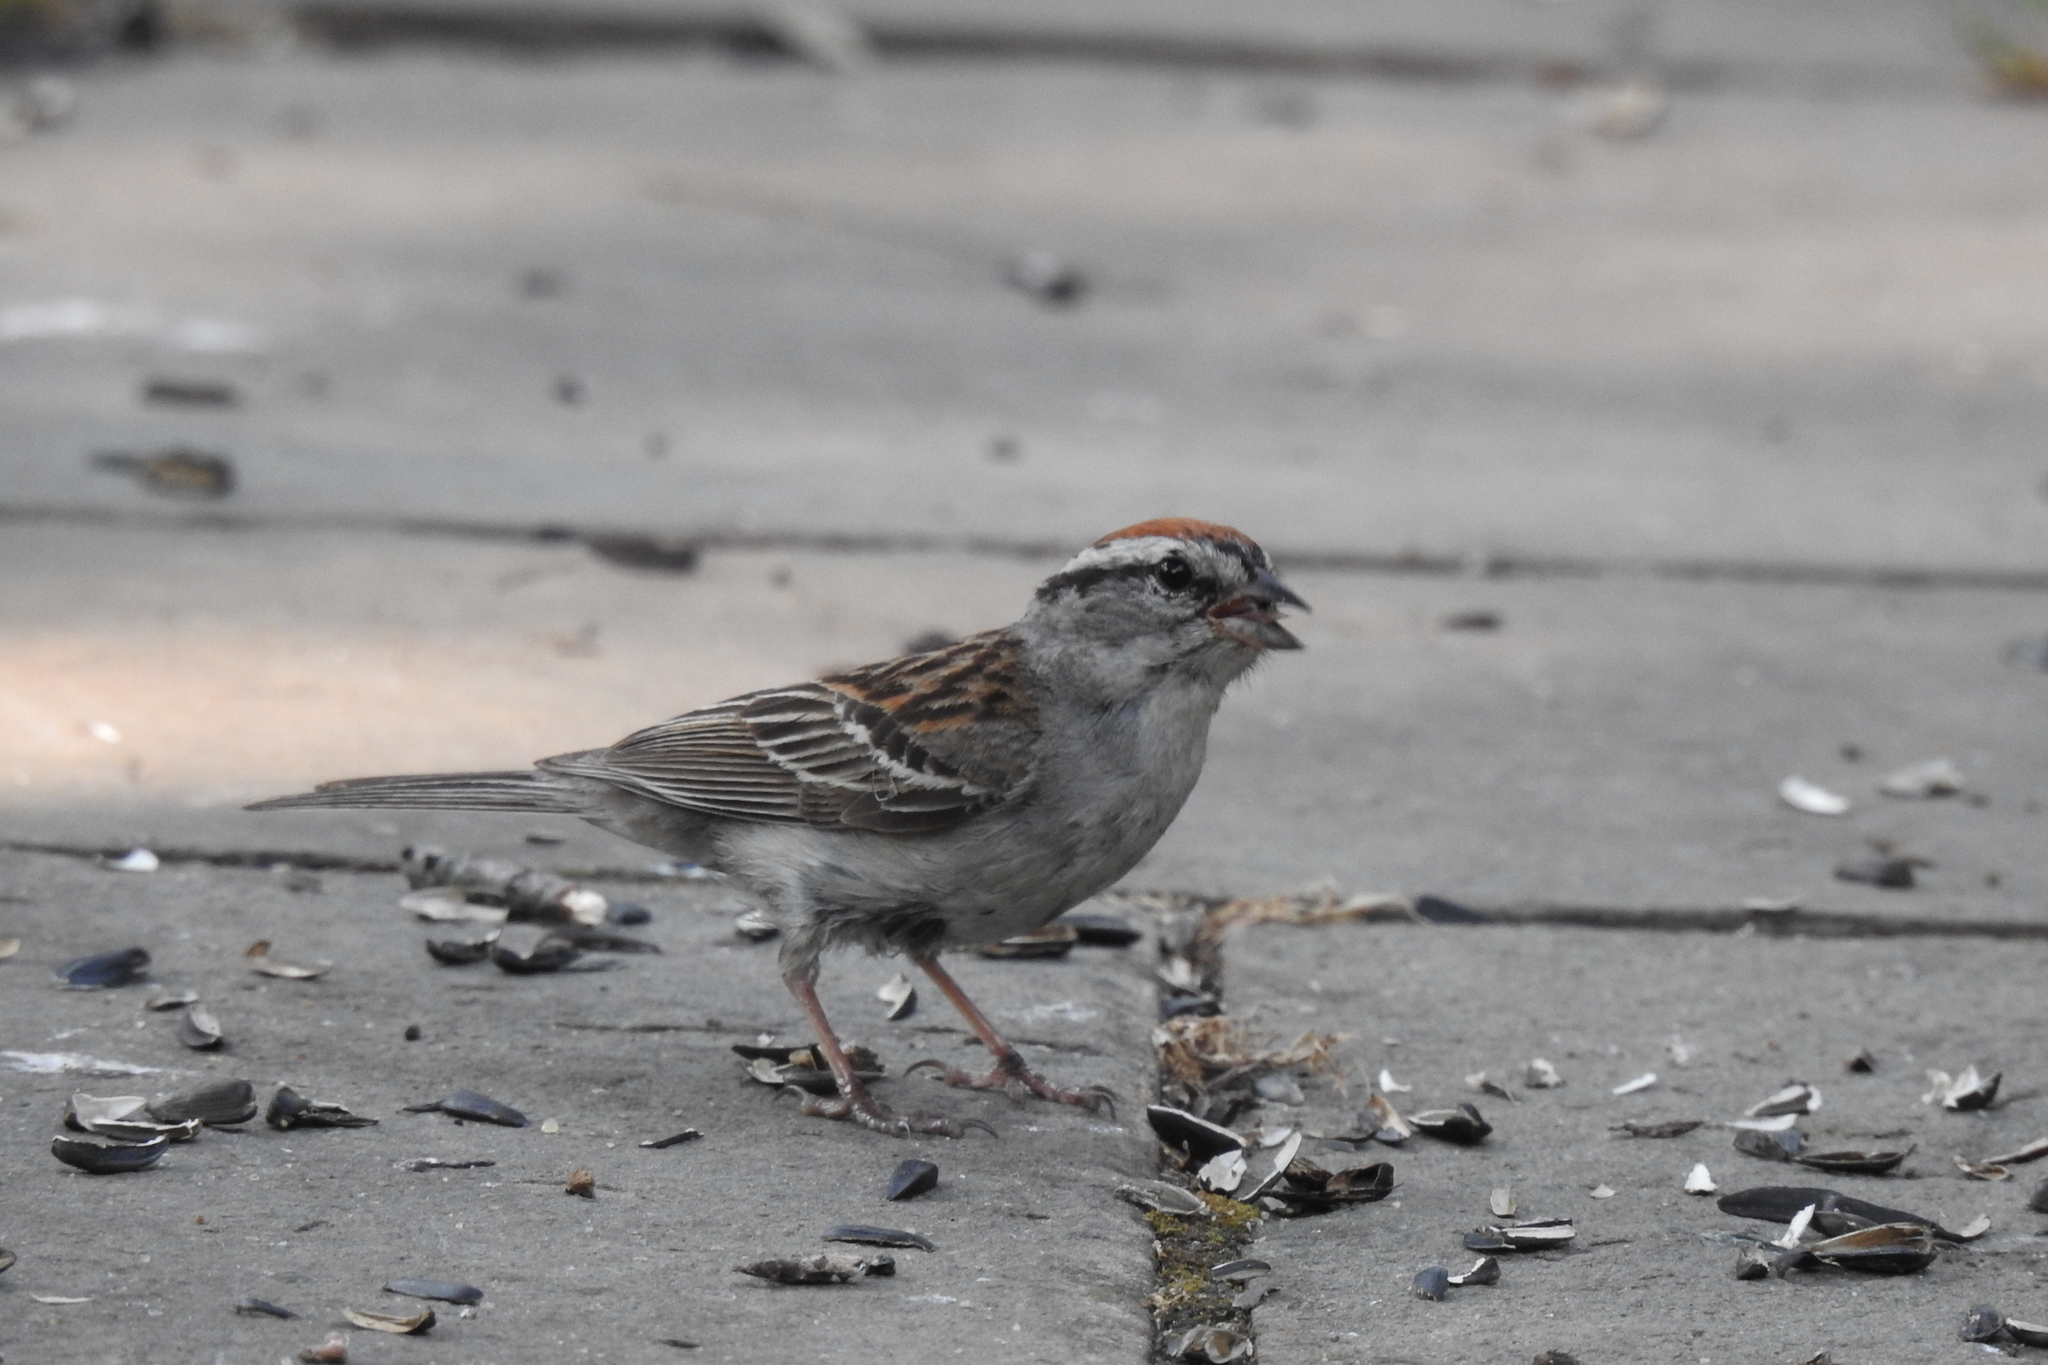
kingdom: Animalia
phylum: Chordata
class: Aves
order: Passeriformes
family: Passerellidae
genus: Spizella
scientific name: Spizella passerina
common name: Chipping sparrow
